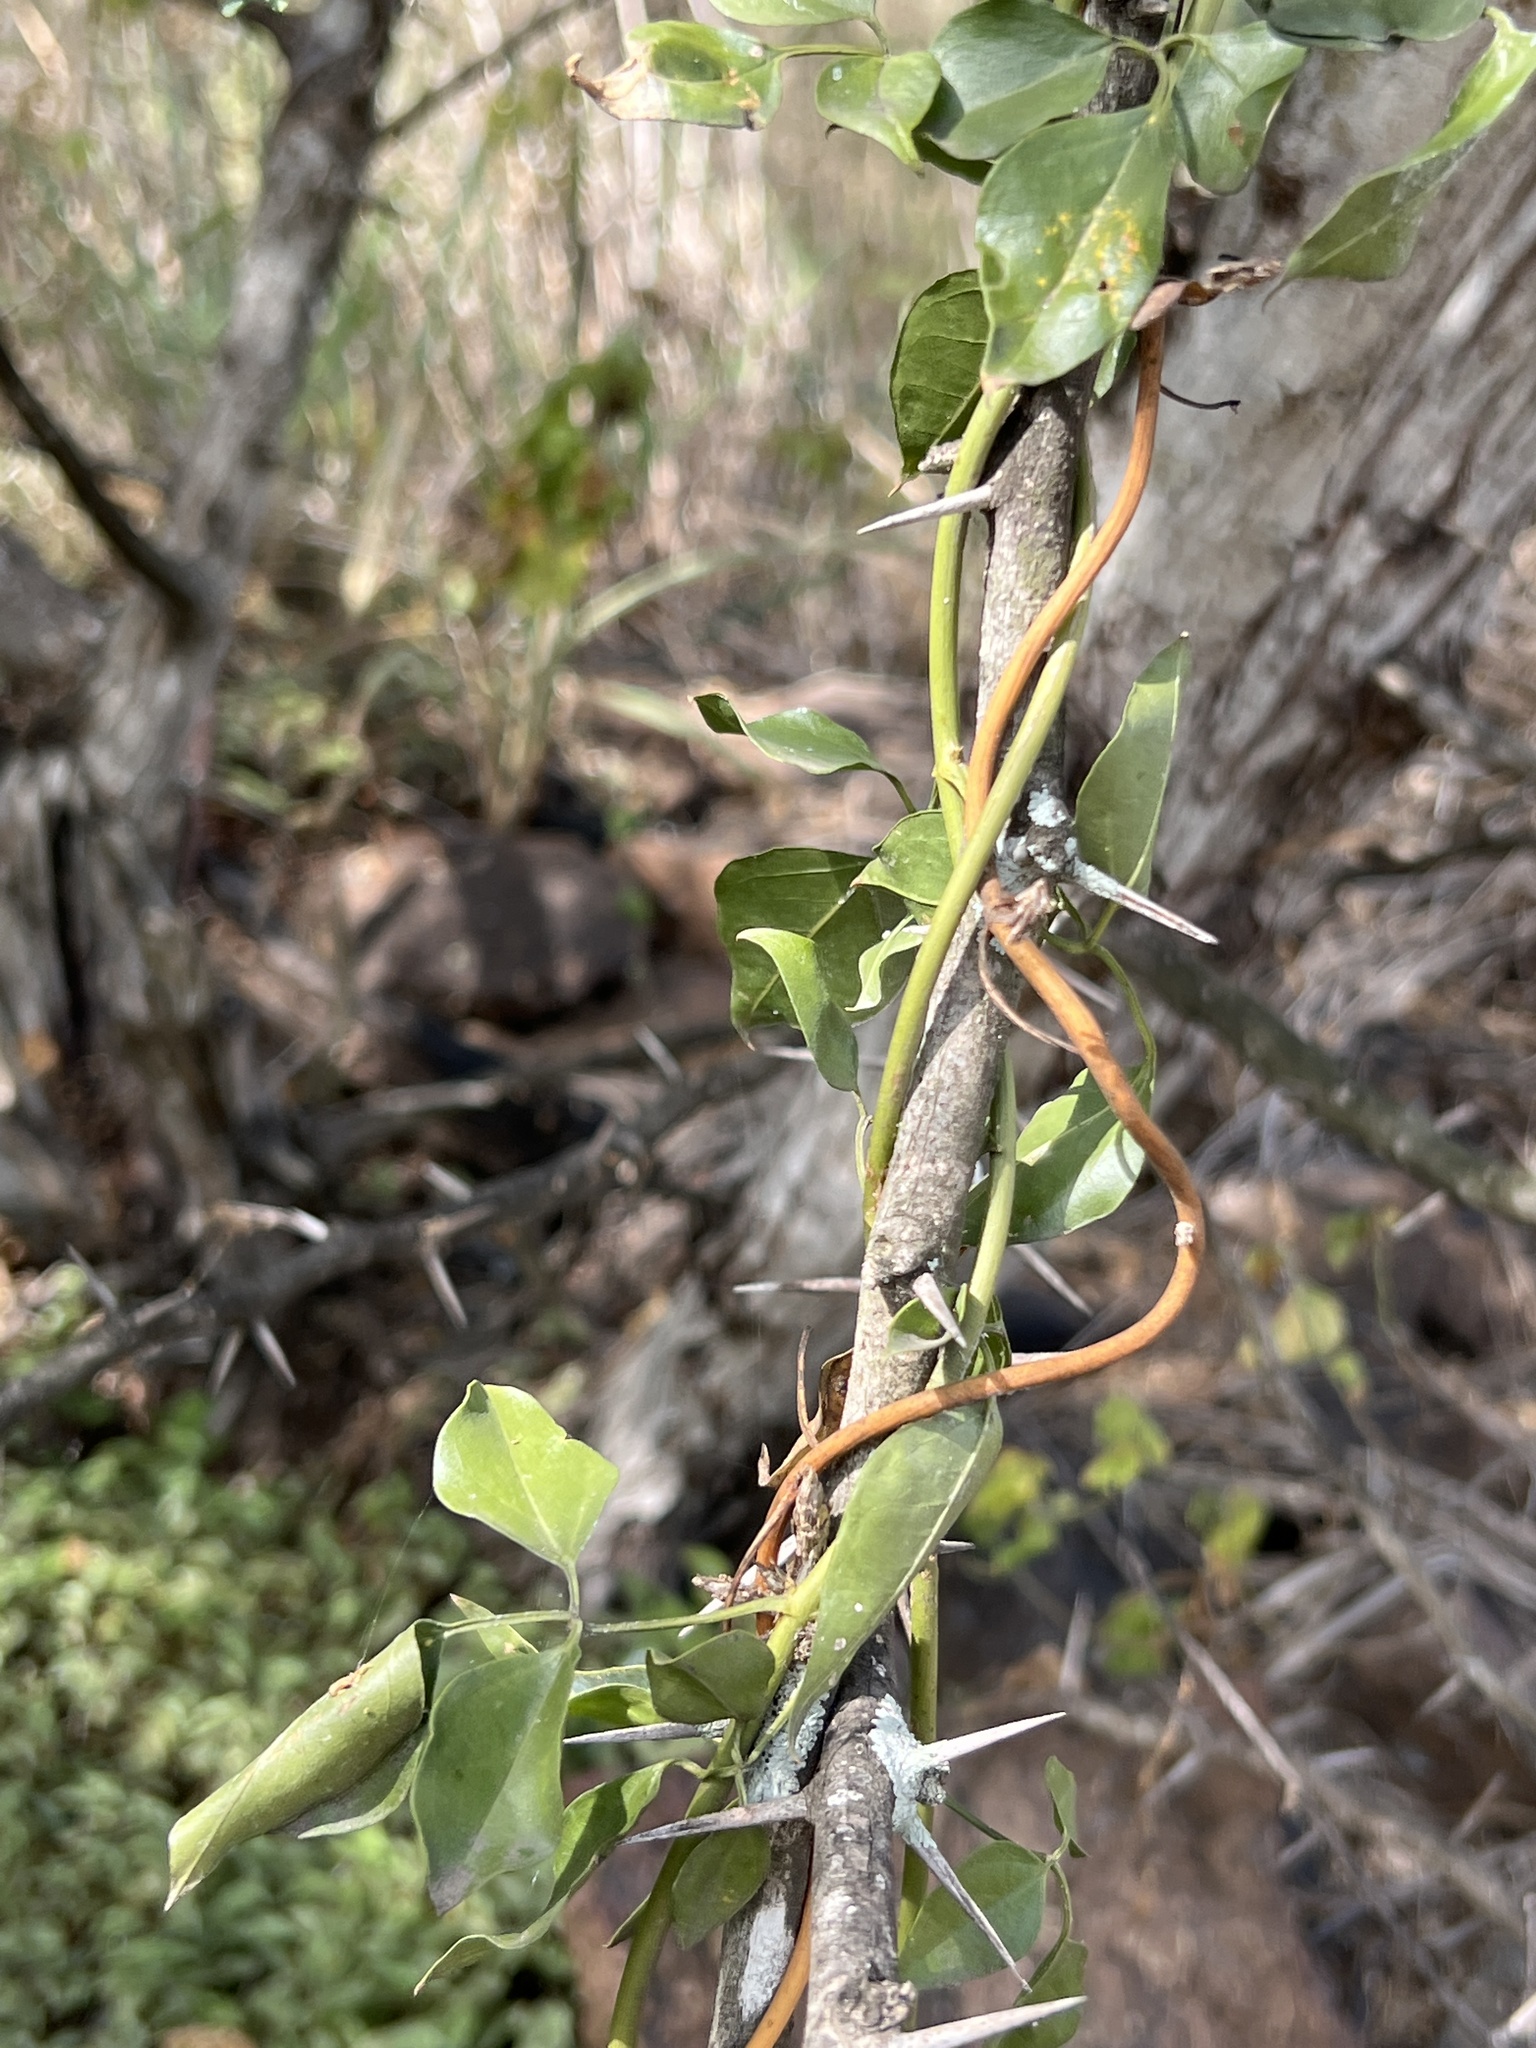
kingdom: Plantae
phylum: Tracheophyta
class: Magnoliopsida
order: Lamiales
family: Oleaceae
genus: Jasminum
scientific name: Jasminum fluminense
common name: Brazilian jasmine
